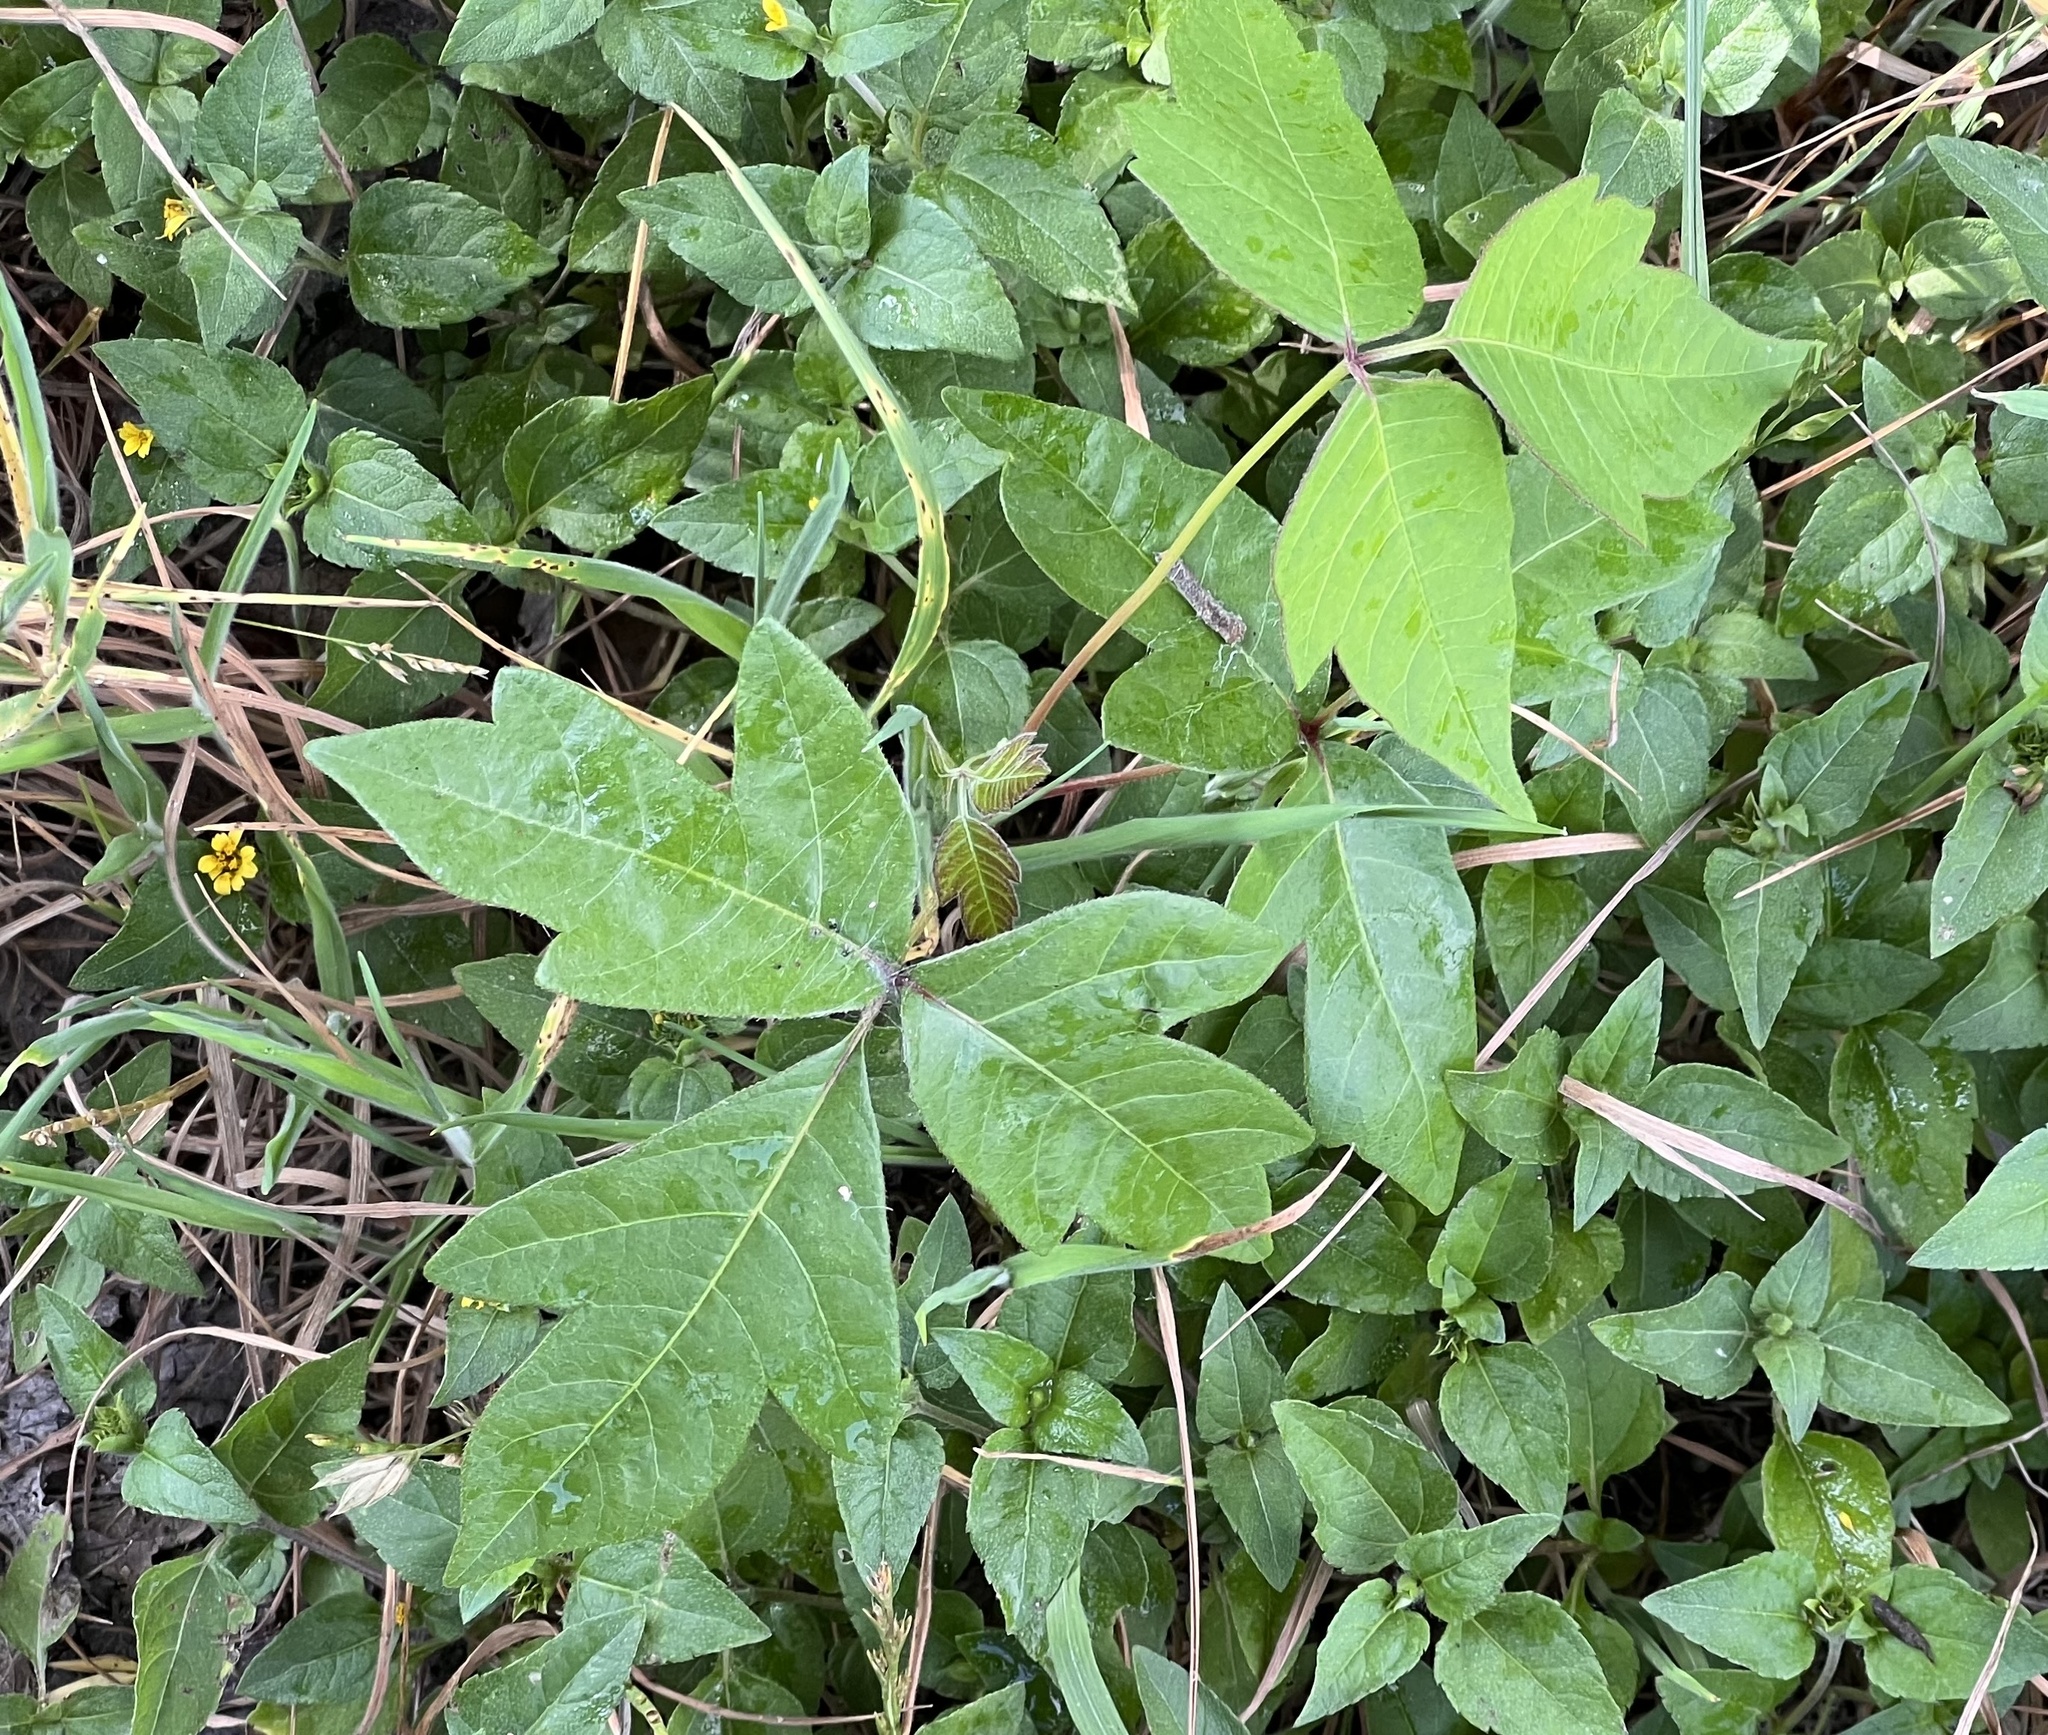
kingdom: Plantae
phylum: Tracheophyta
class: Magnoliopsida
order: Sapindales
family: Anacardiaceae
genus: Toxicodendron
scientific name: Toxicodendron radicans
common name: Poison ivy
